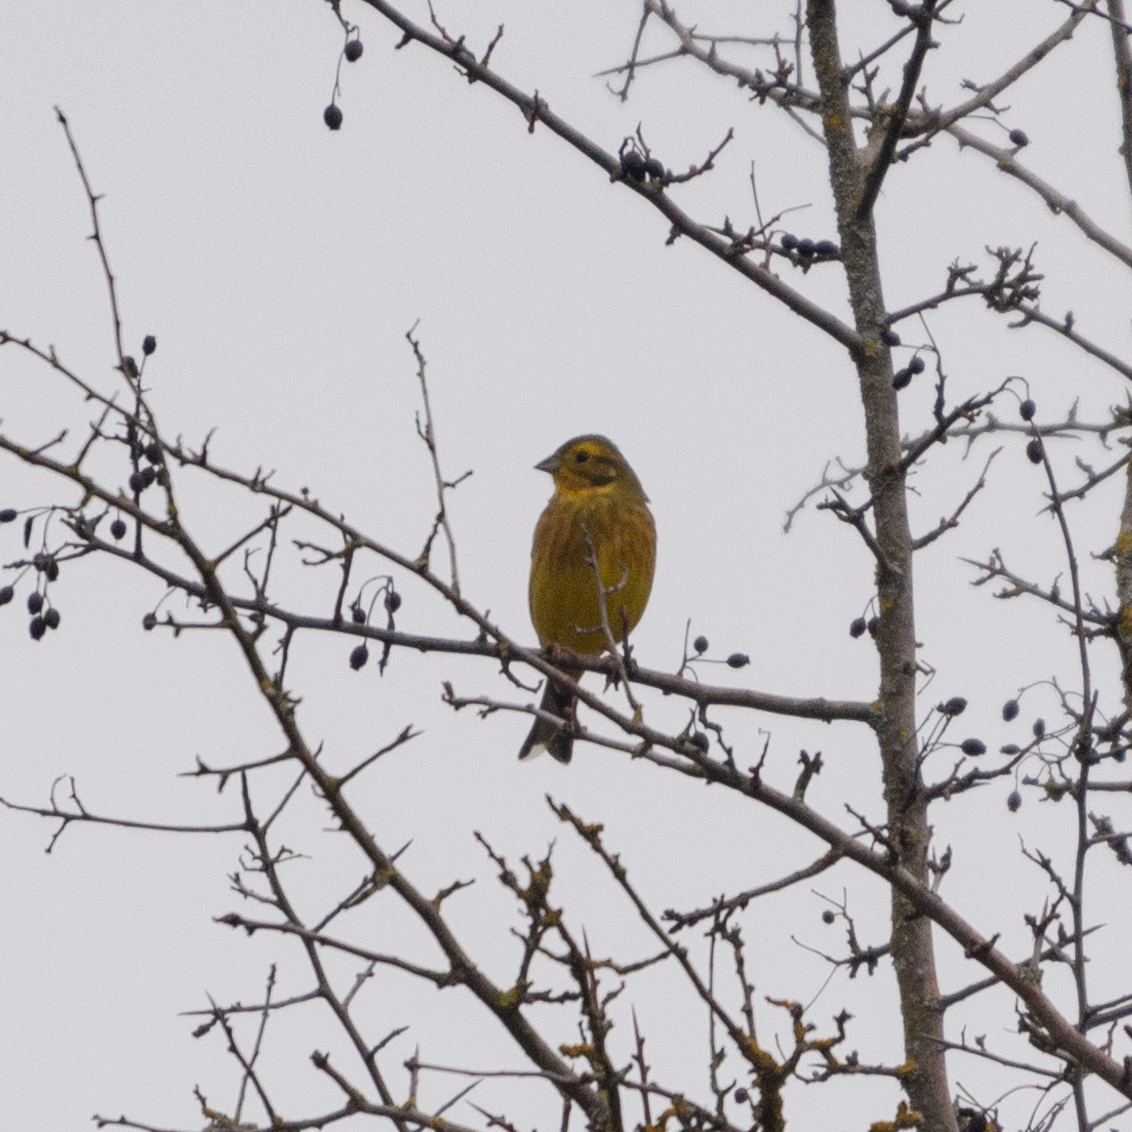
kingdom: Animalia
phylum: Chordata
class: Aves
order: Passeriformes
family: Emberizidae
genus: Emberiza
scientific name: Emberiza citrinella
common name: Yellowhammer
